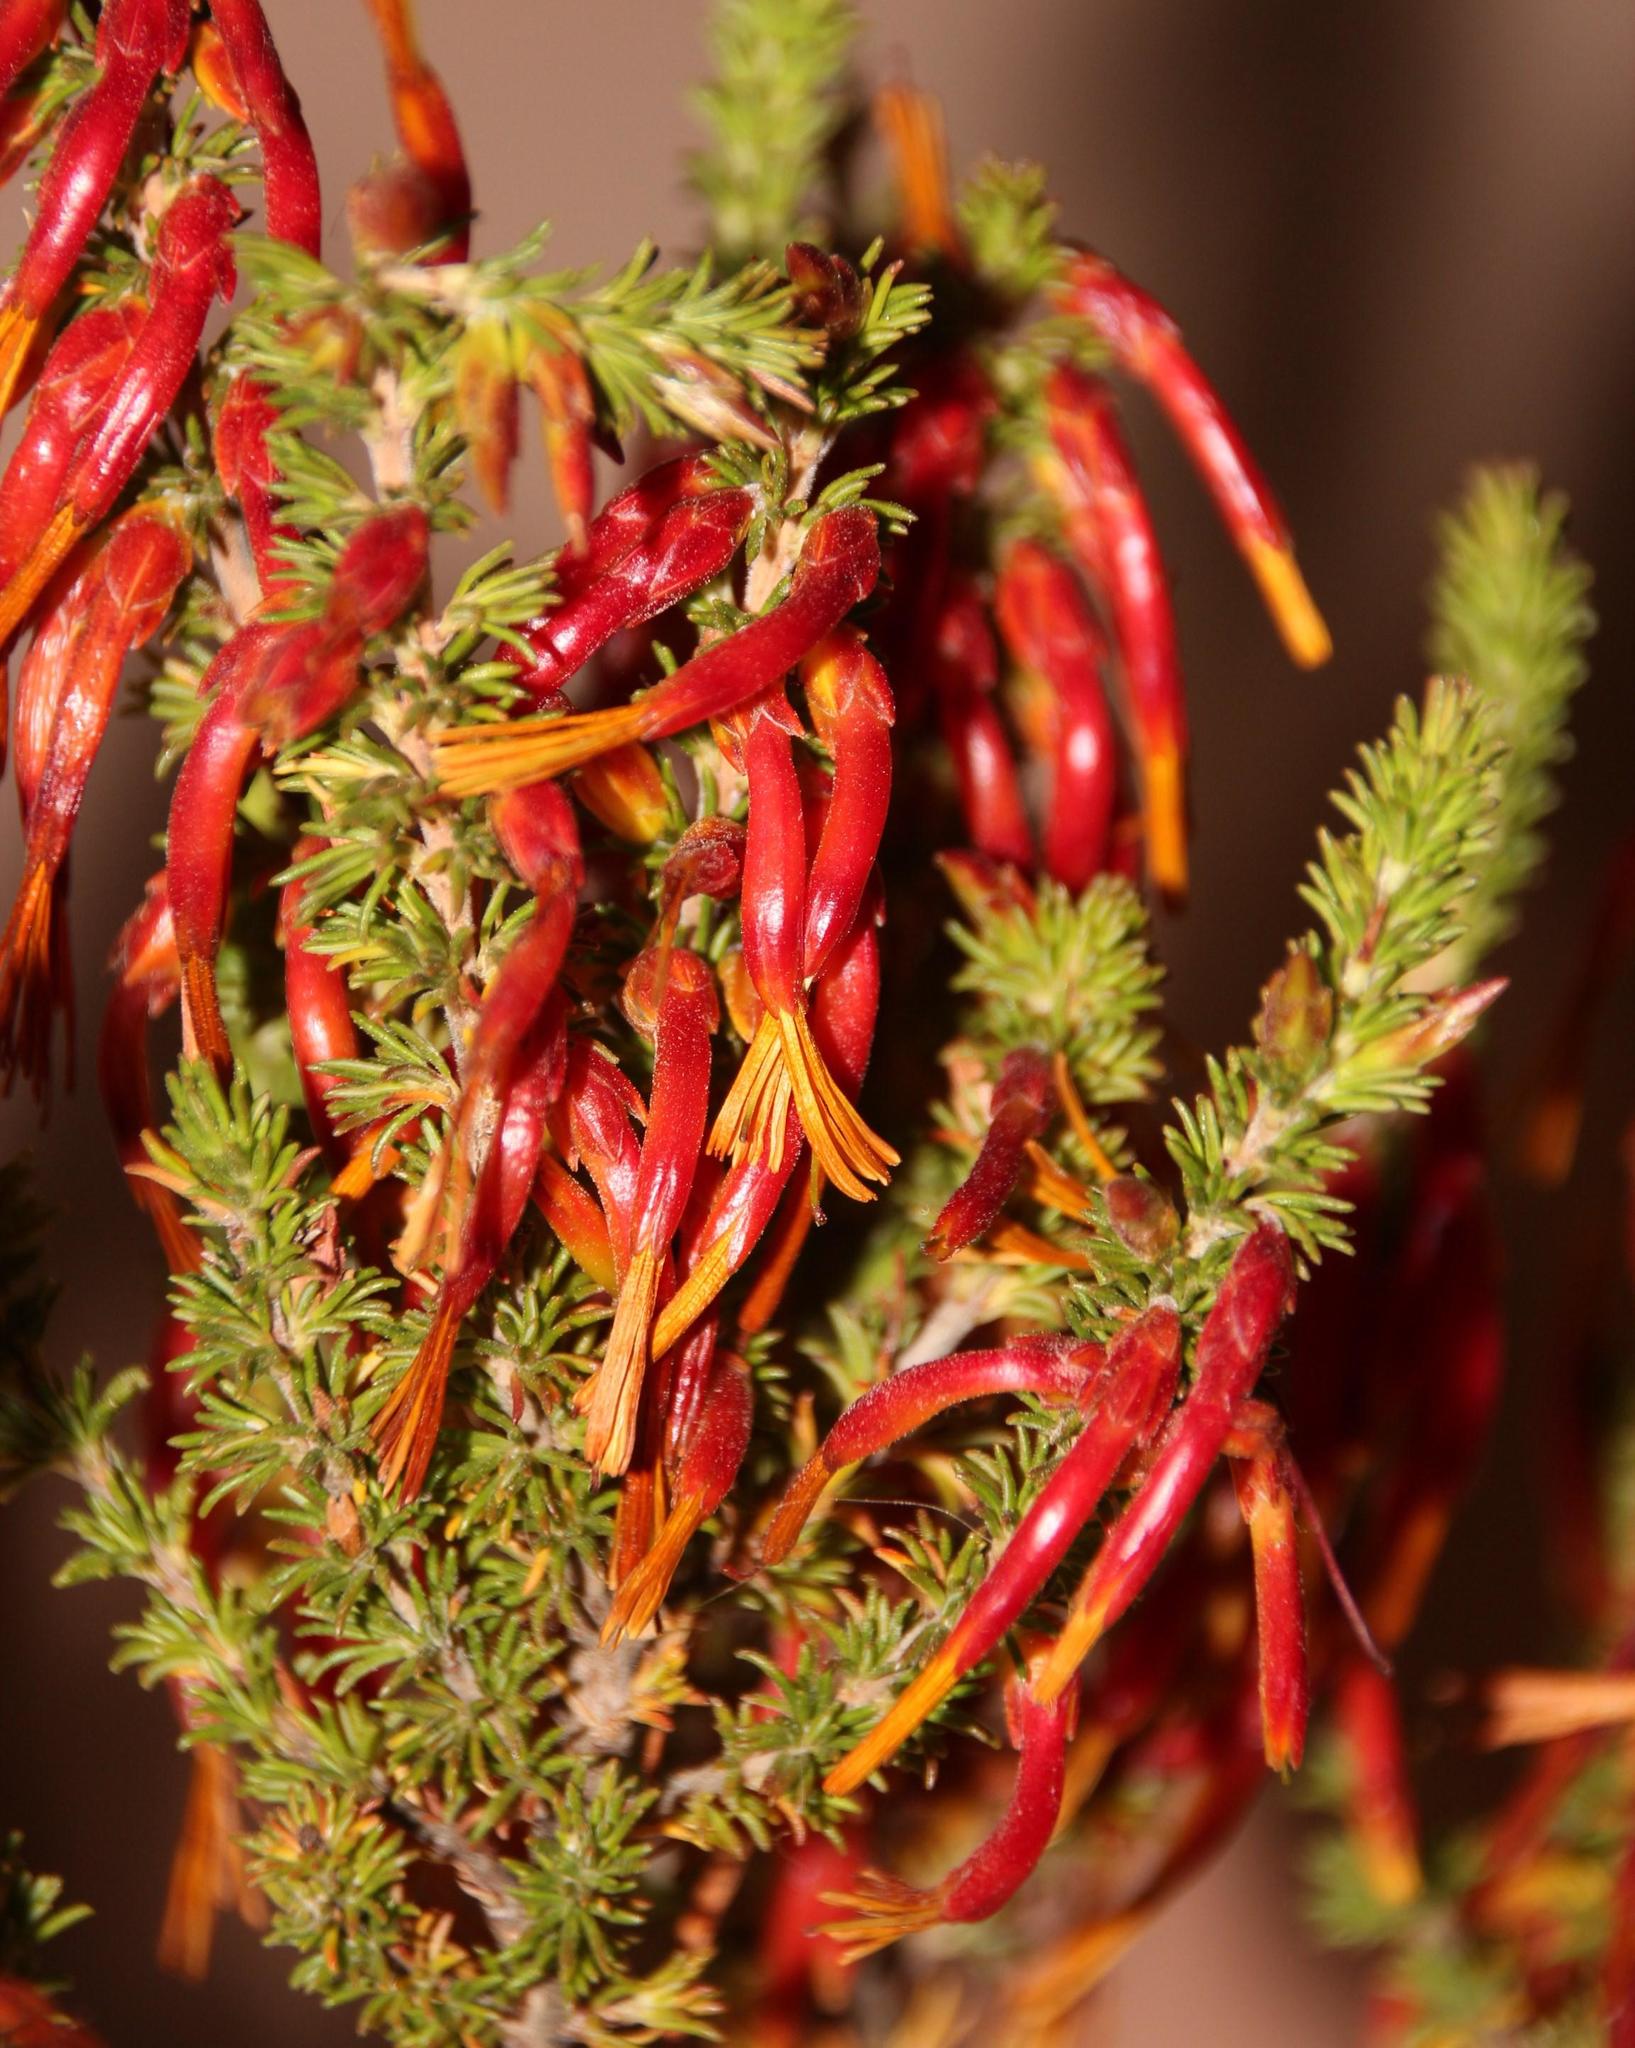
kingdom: Plantae
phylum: Tracheophyta
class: Magnoliopsida
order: Ericales
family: Ericaceae
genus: Erica
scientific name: Erica coccinea
